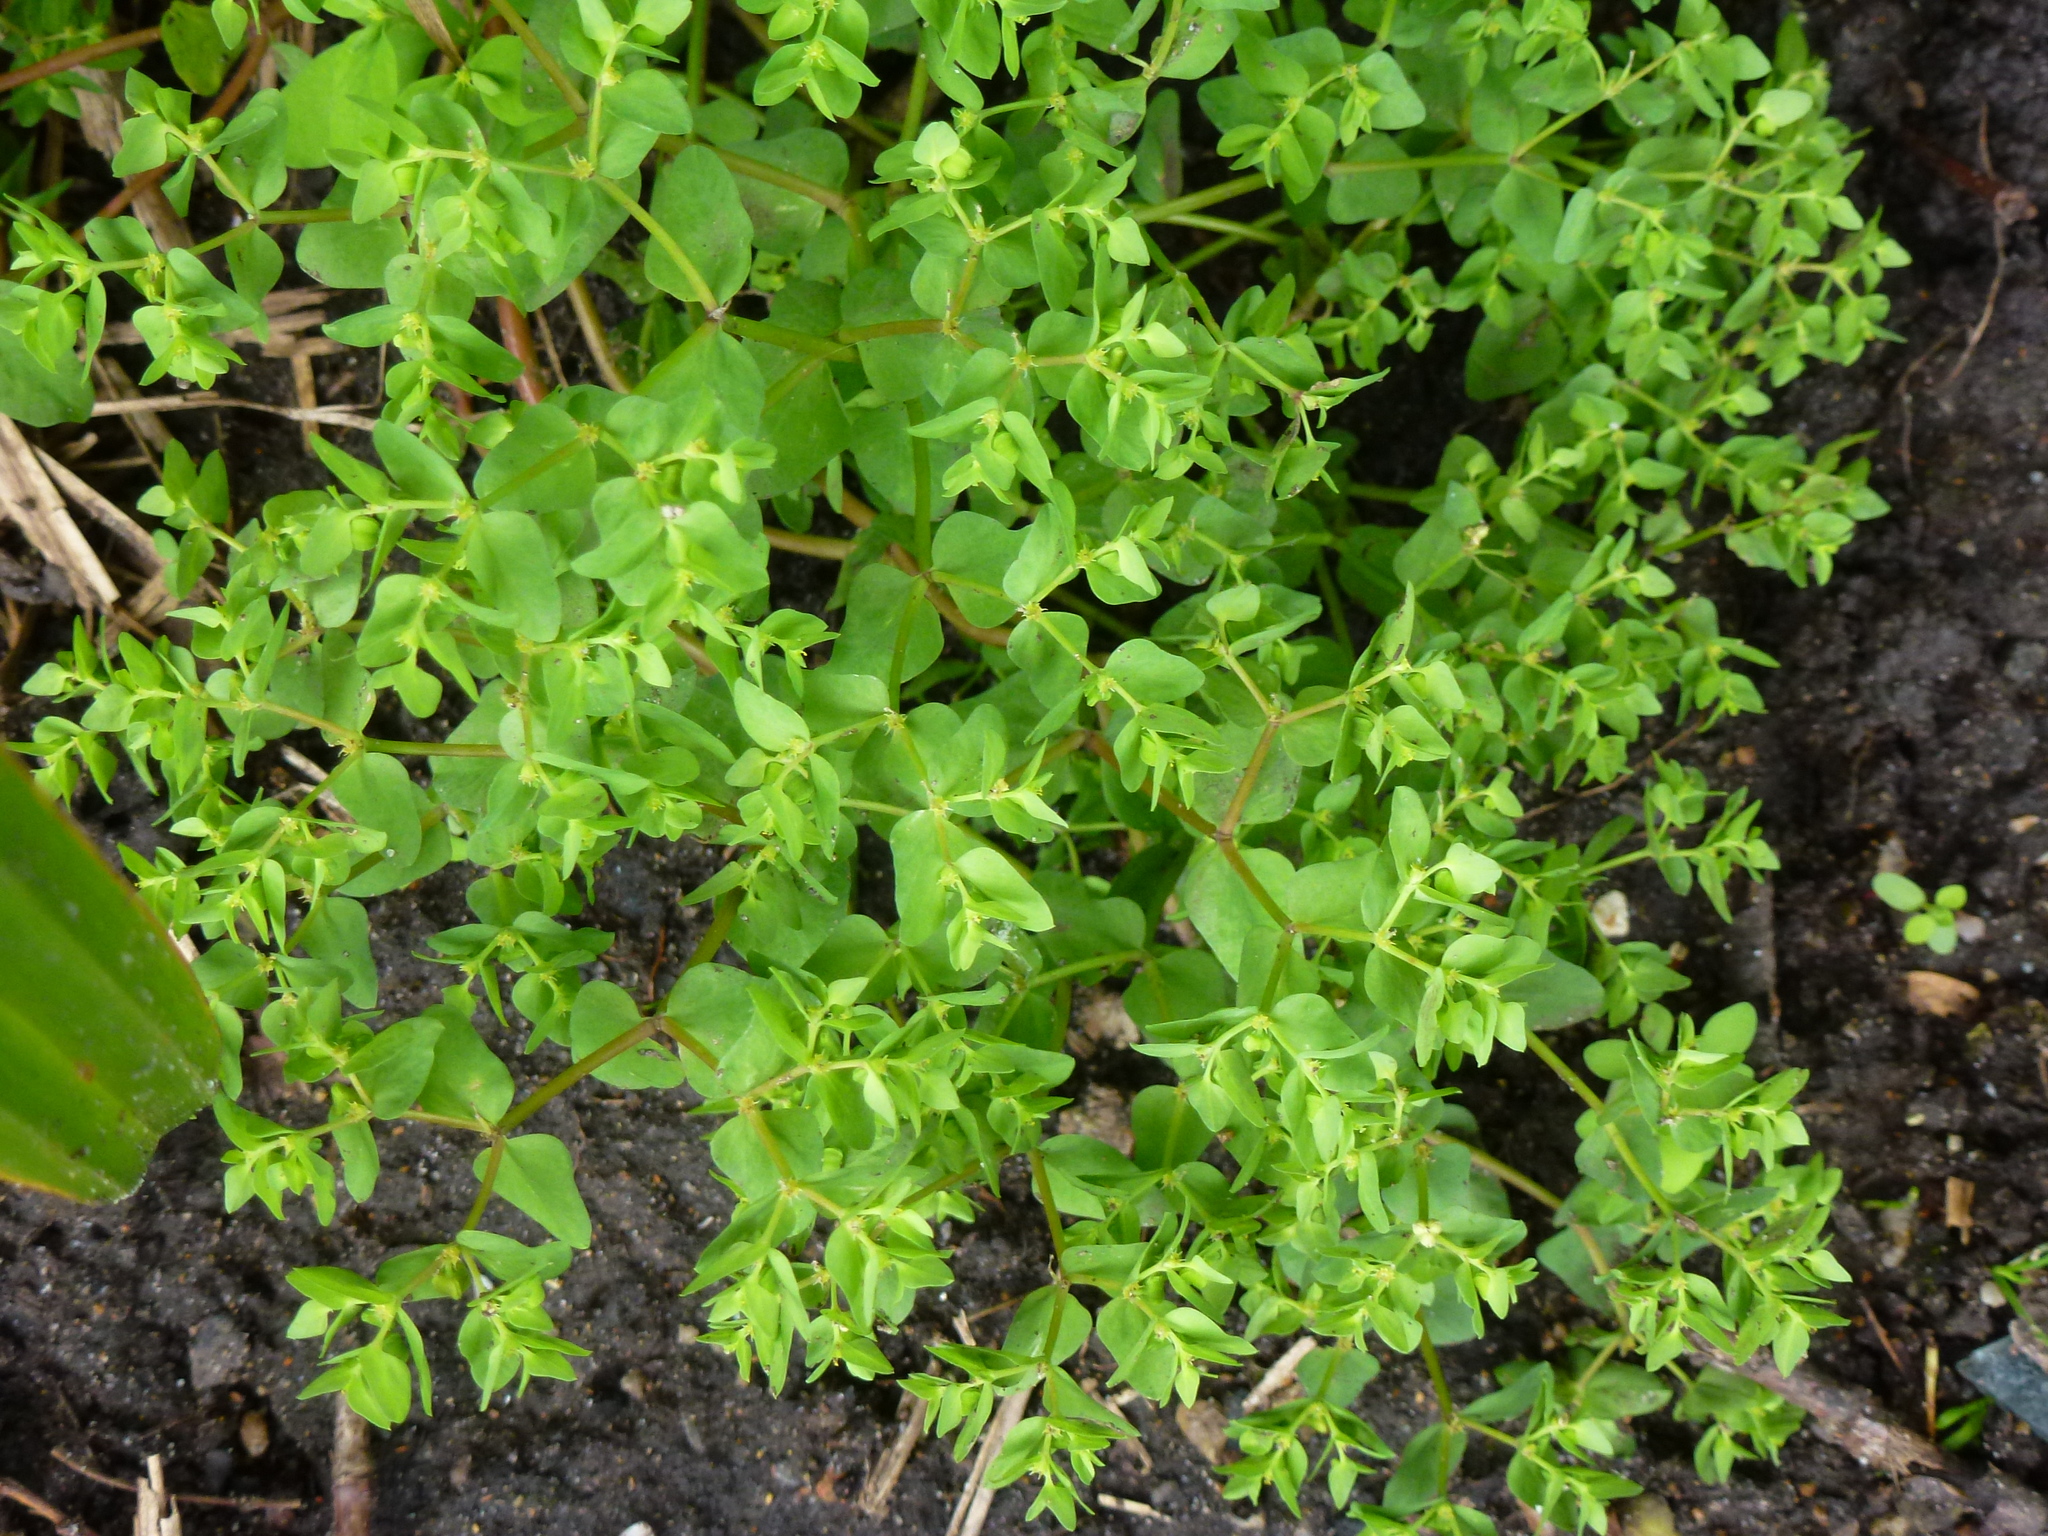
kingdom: Plantae
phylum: Tracheophyta
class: Magnoliopsida
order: Malpighiales
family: Euphorbiaceae
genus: Euphorbia
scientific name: Euphorbia peplus
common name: Petty spurge
